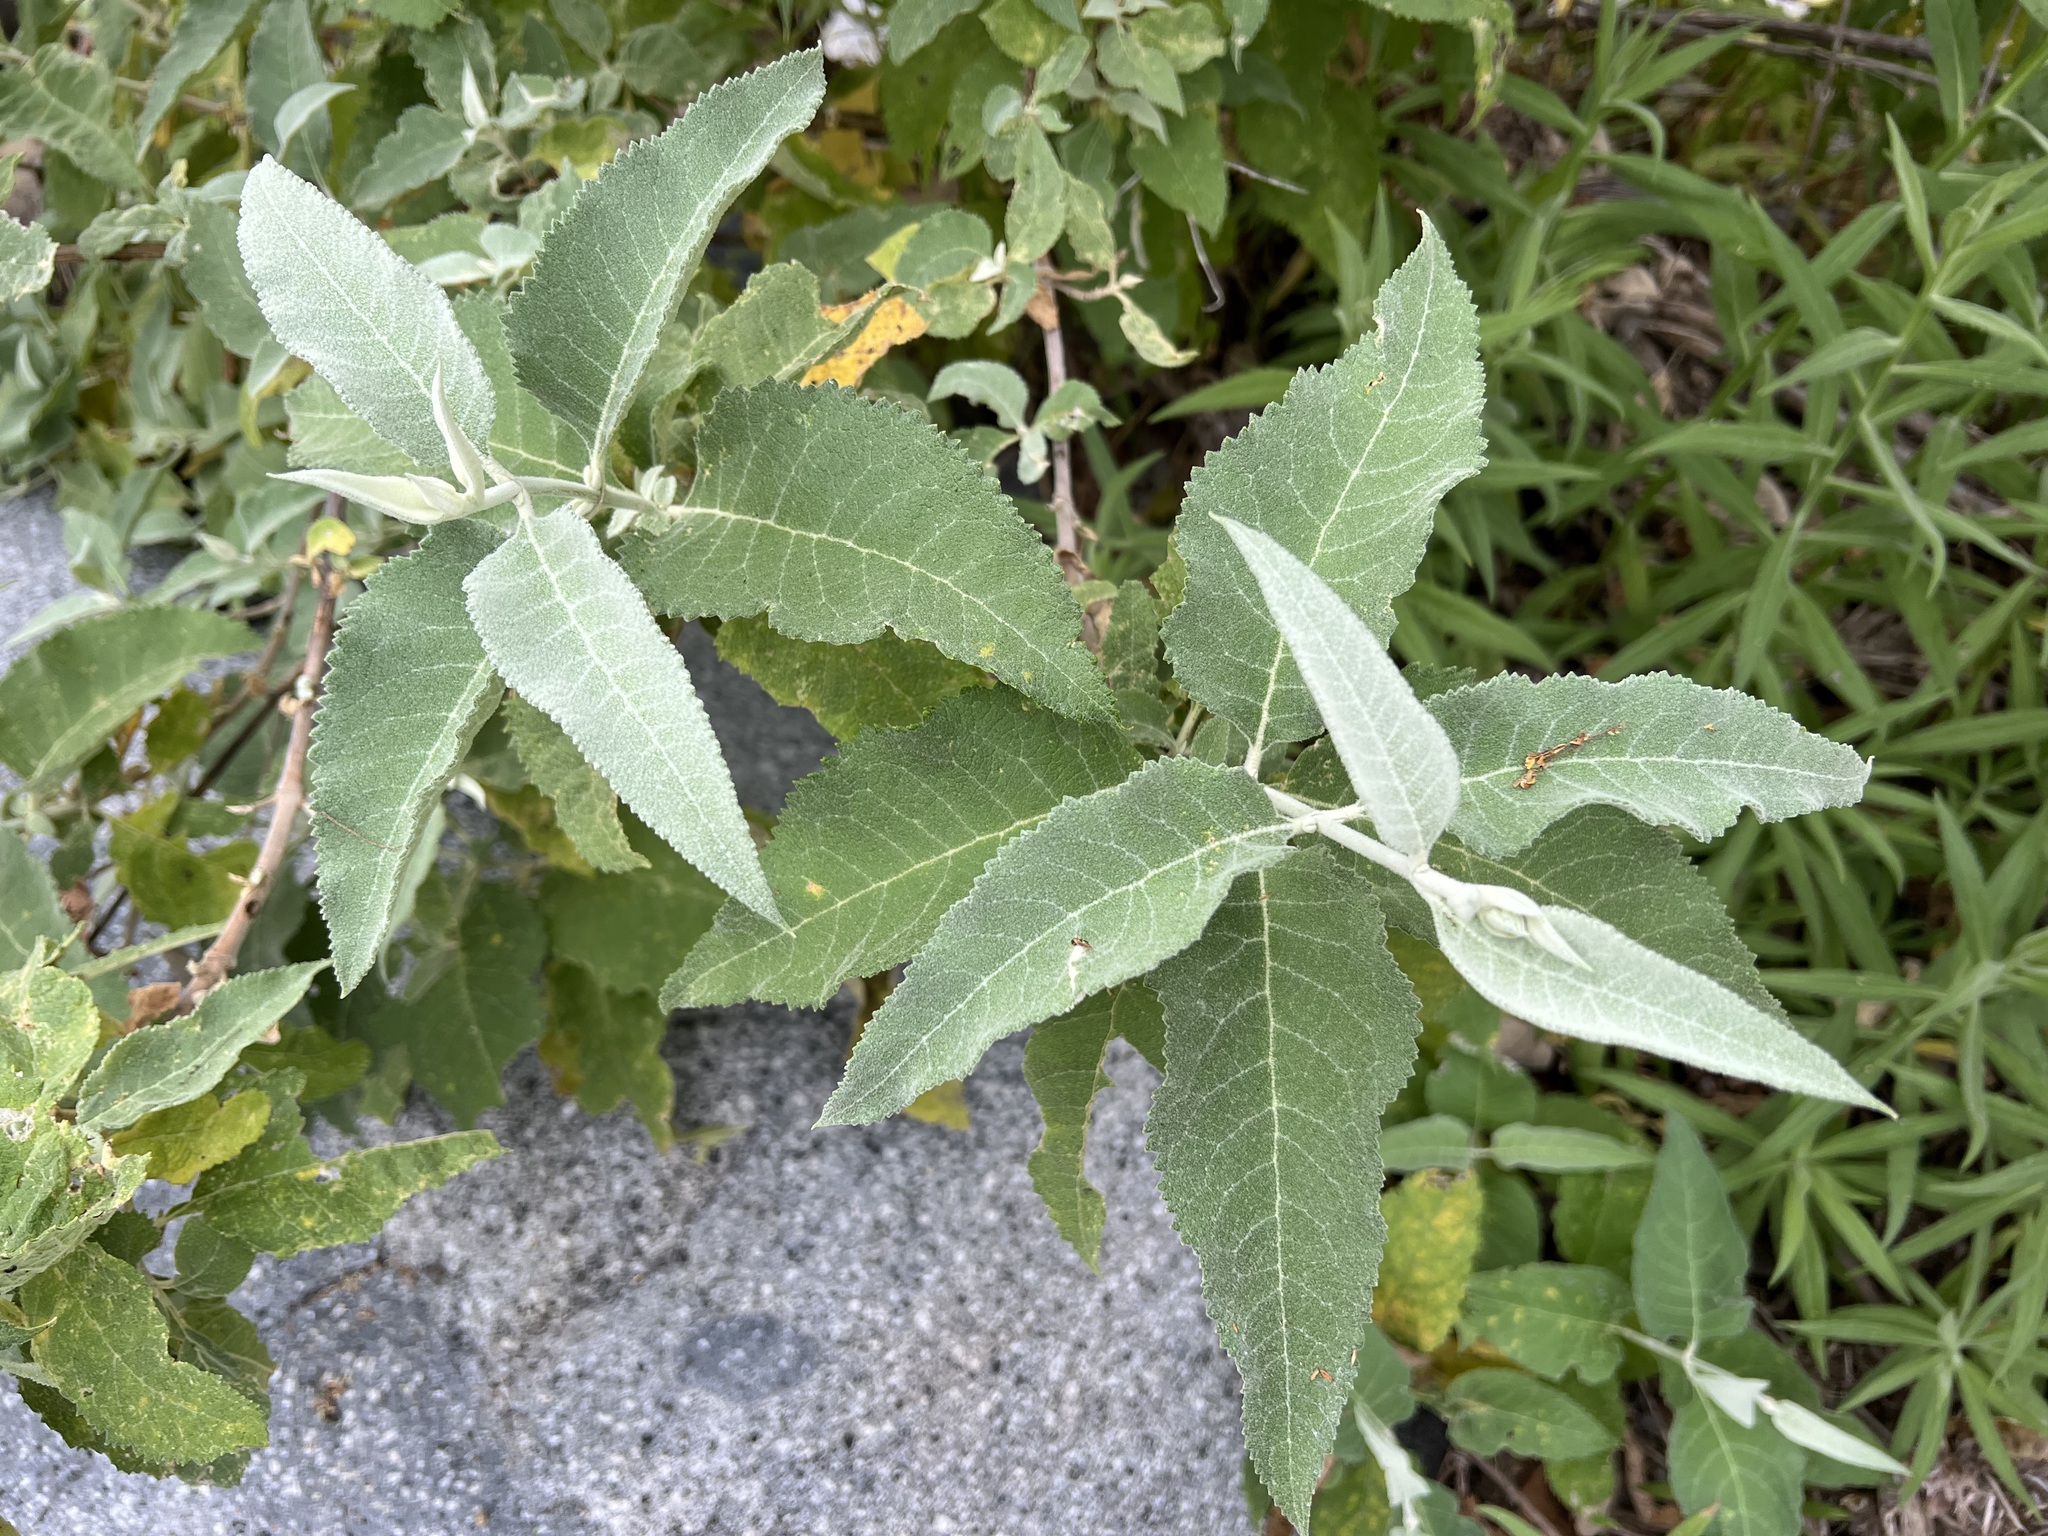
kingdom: Plantae
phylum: Tracheophyta
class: Magnoliopsida
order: Lamiales
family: Scrophulariaceae
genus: Buddleja
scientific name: Buddleja crotonoides
